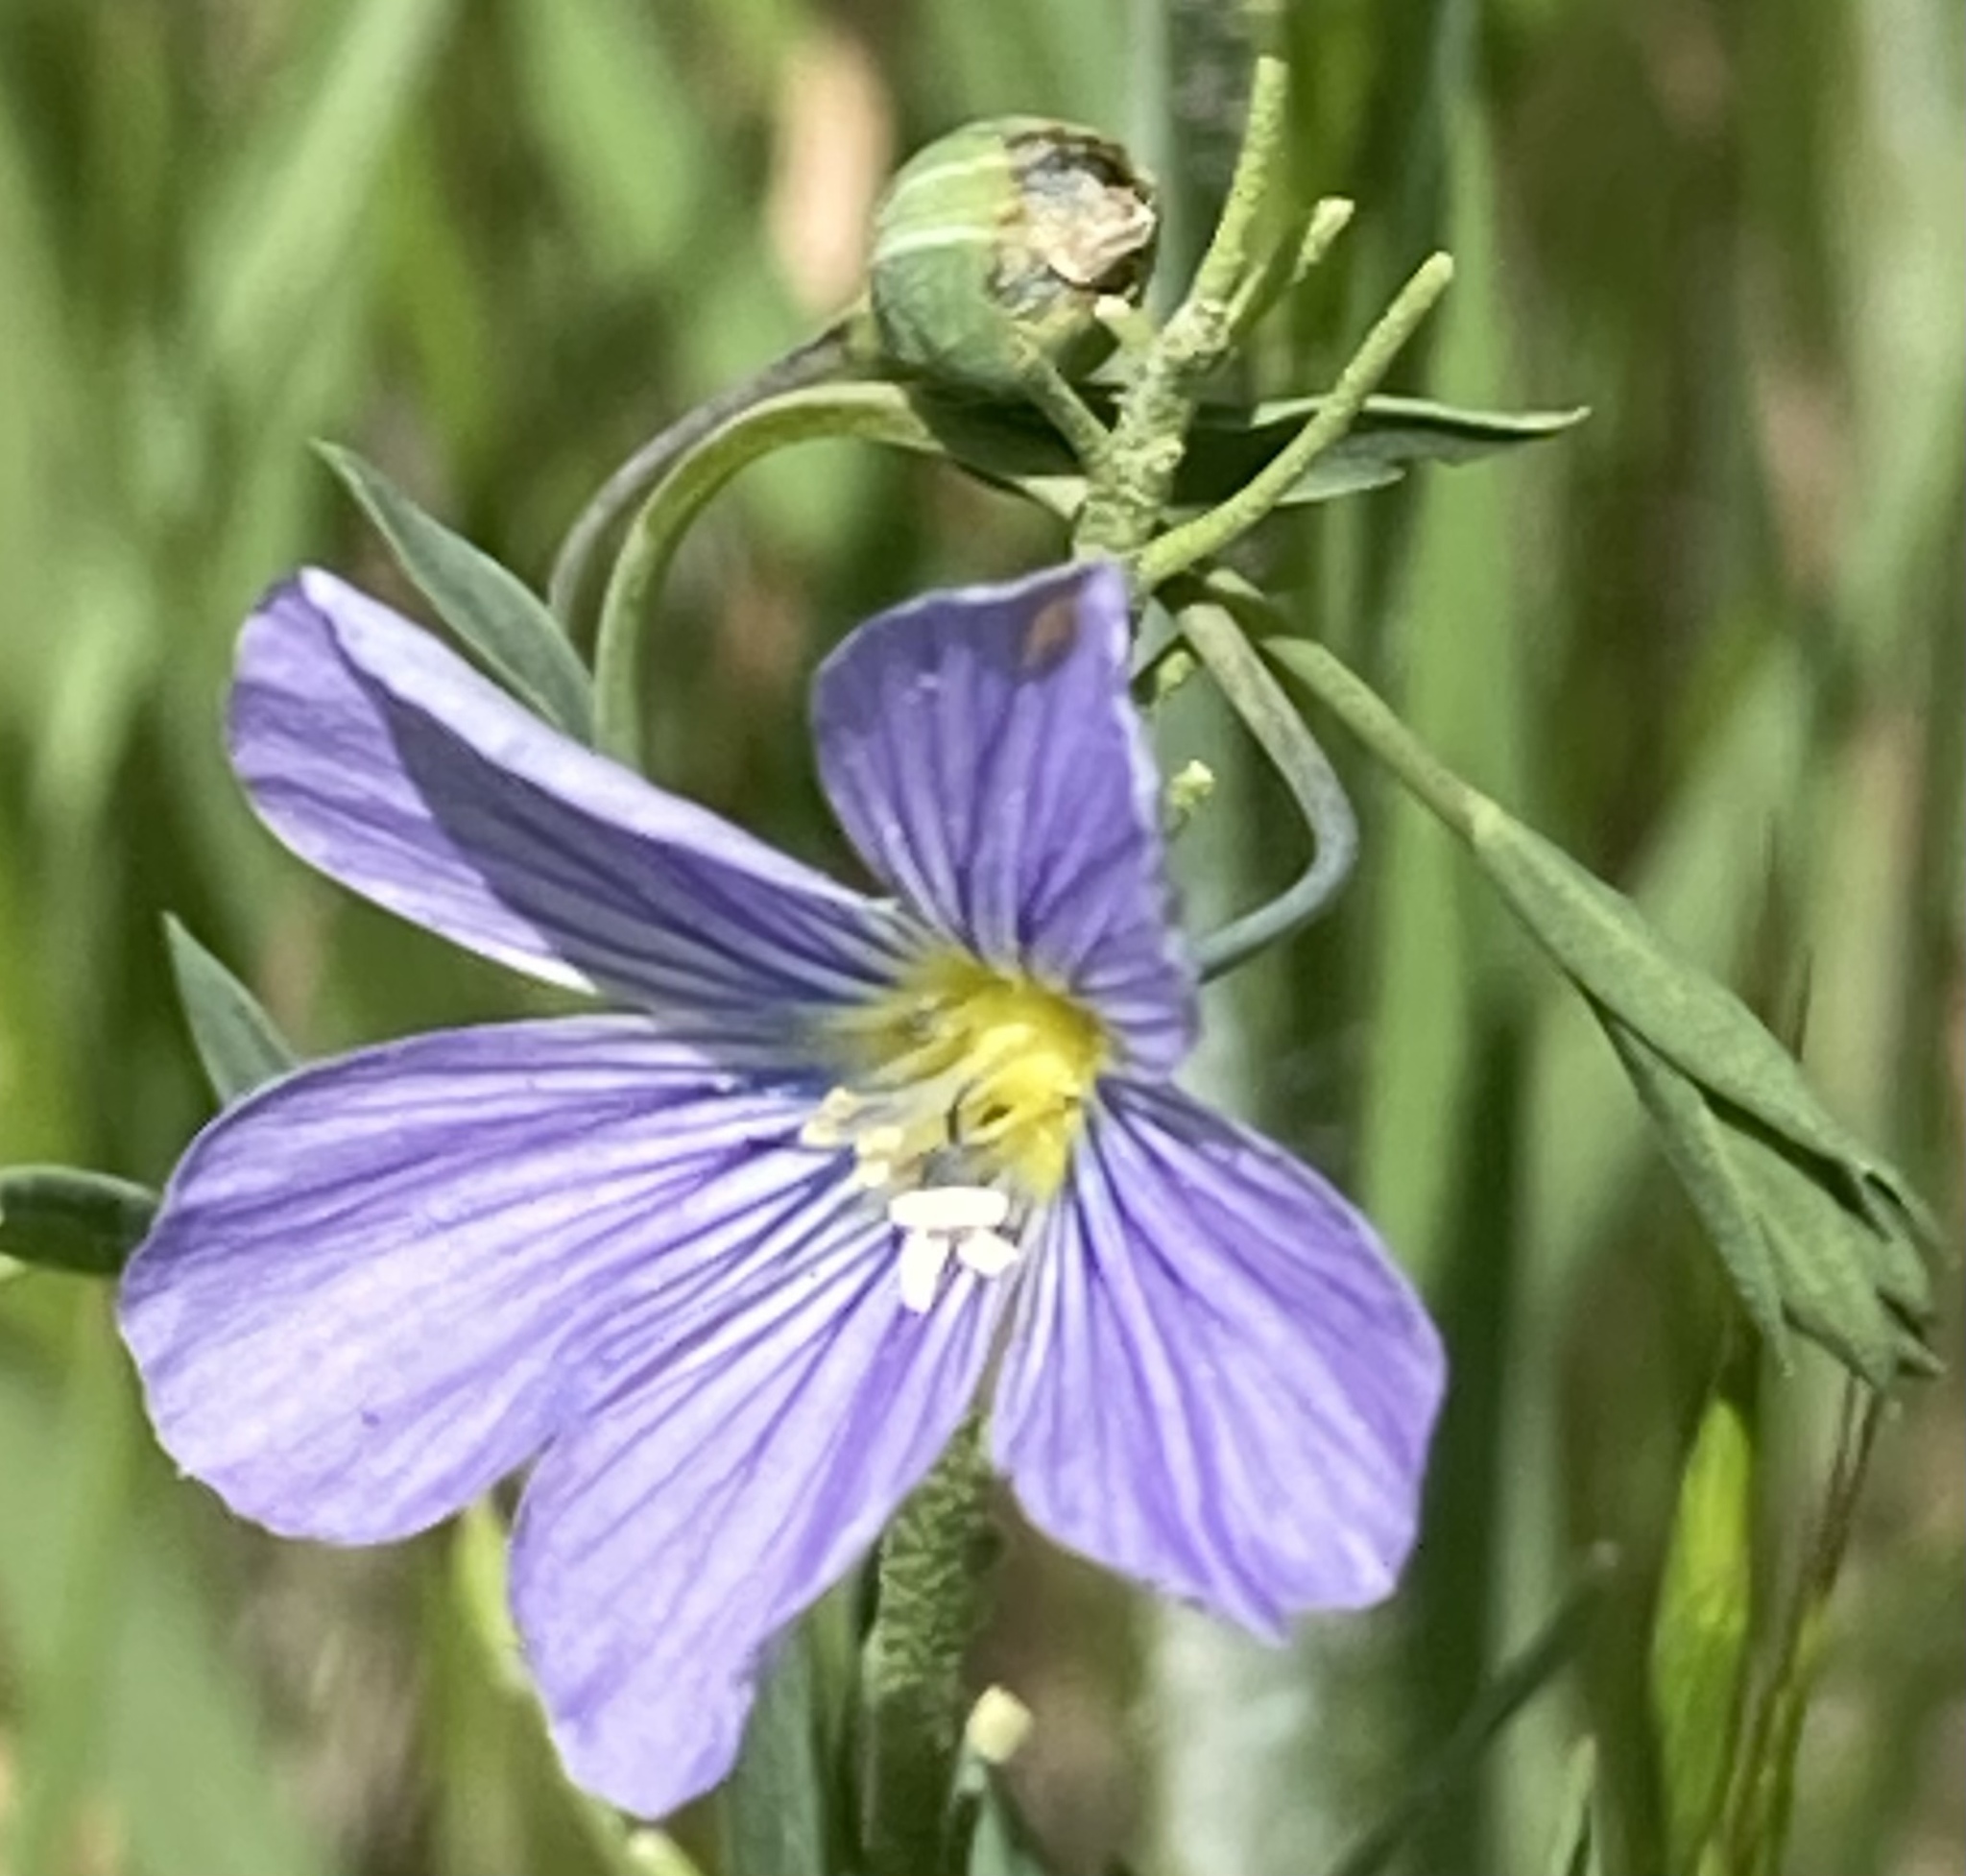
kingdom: Plantae
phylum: Tracheophyta
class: Magnoliopsida
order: Malpighiales
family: Linaceae
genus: Linum
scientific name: Linum pratense
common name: Norton's flax
